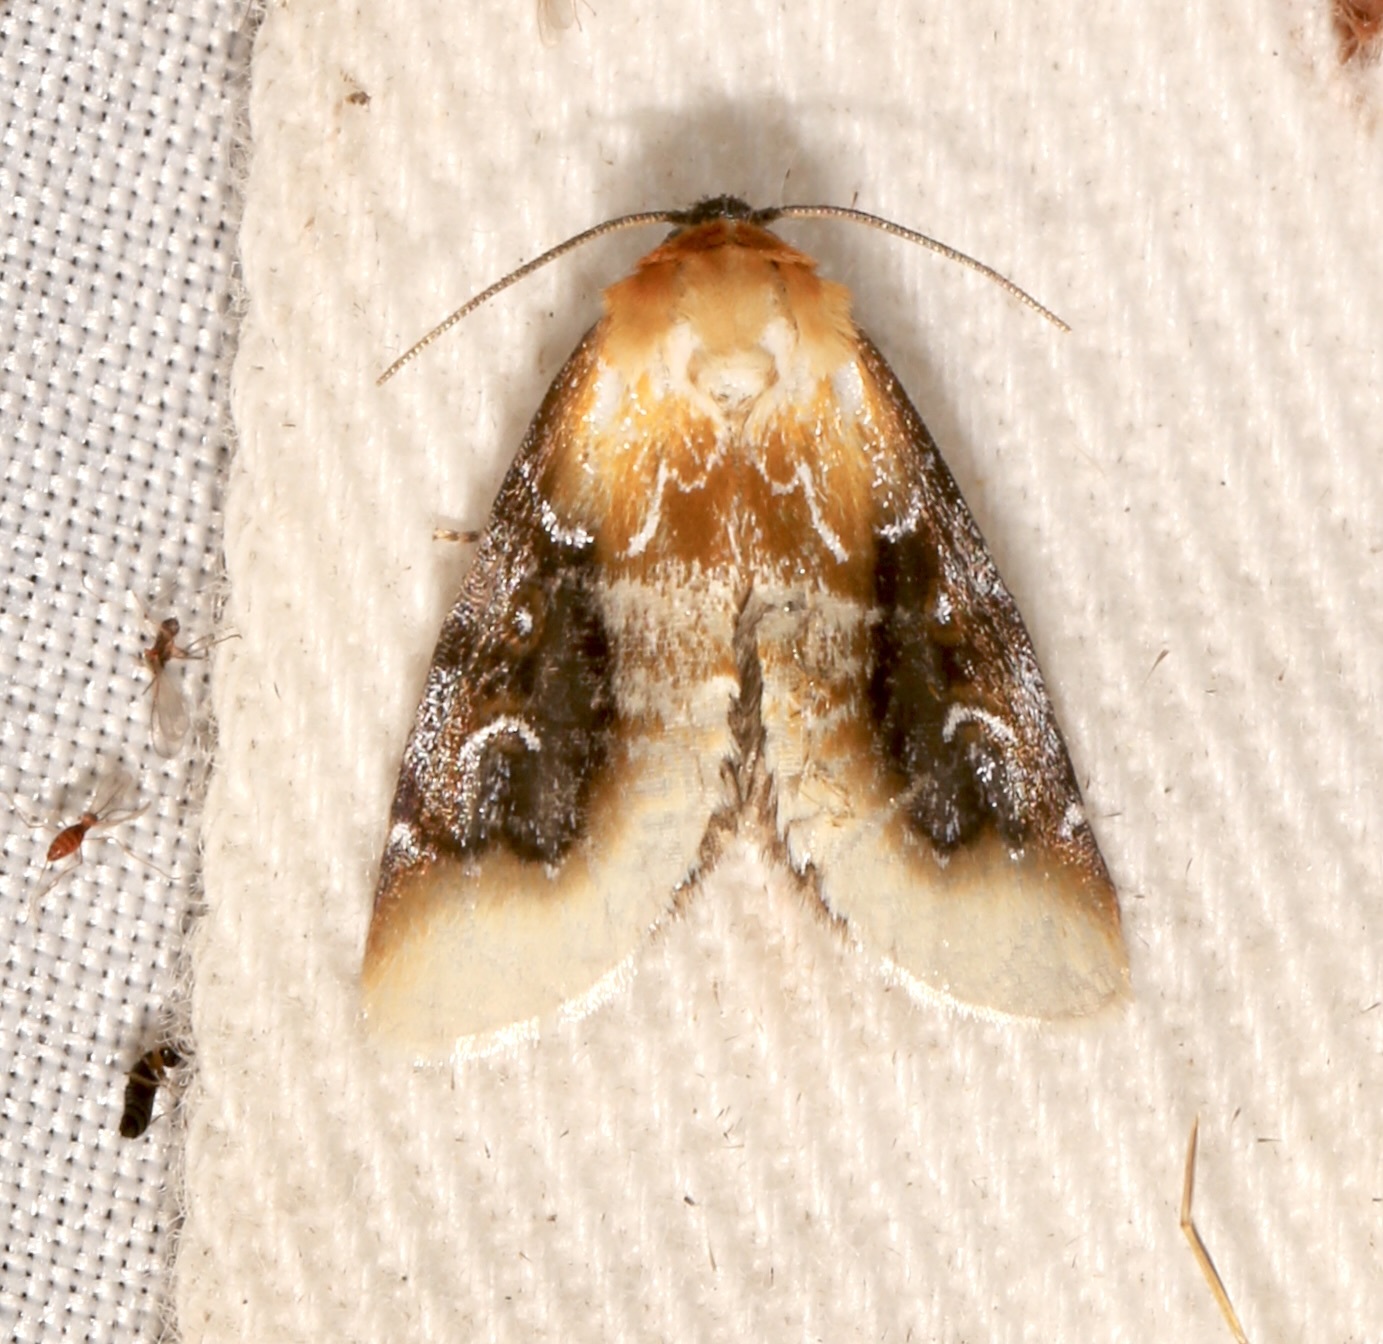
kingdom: Animalia
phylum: Arthropoda
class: Insecta
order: Lepidoptera
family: Noctuidae
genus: Chrysoecia
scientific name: Chrysoecia scira
